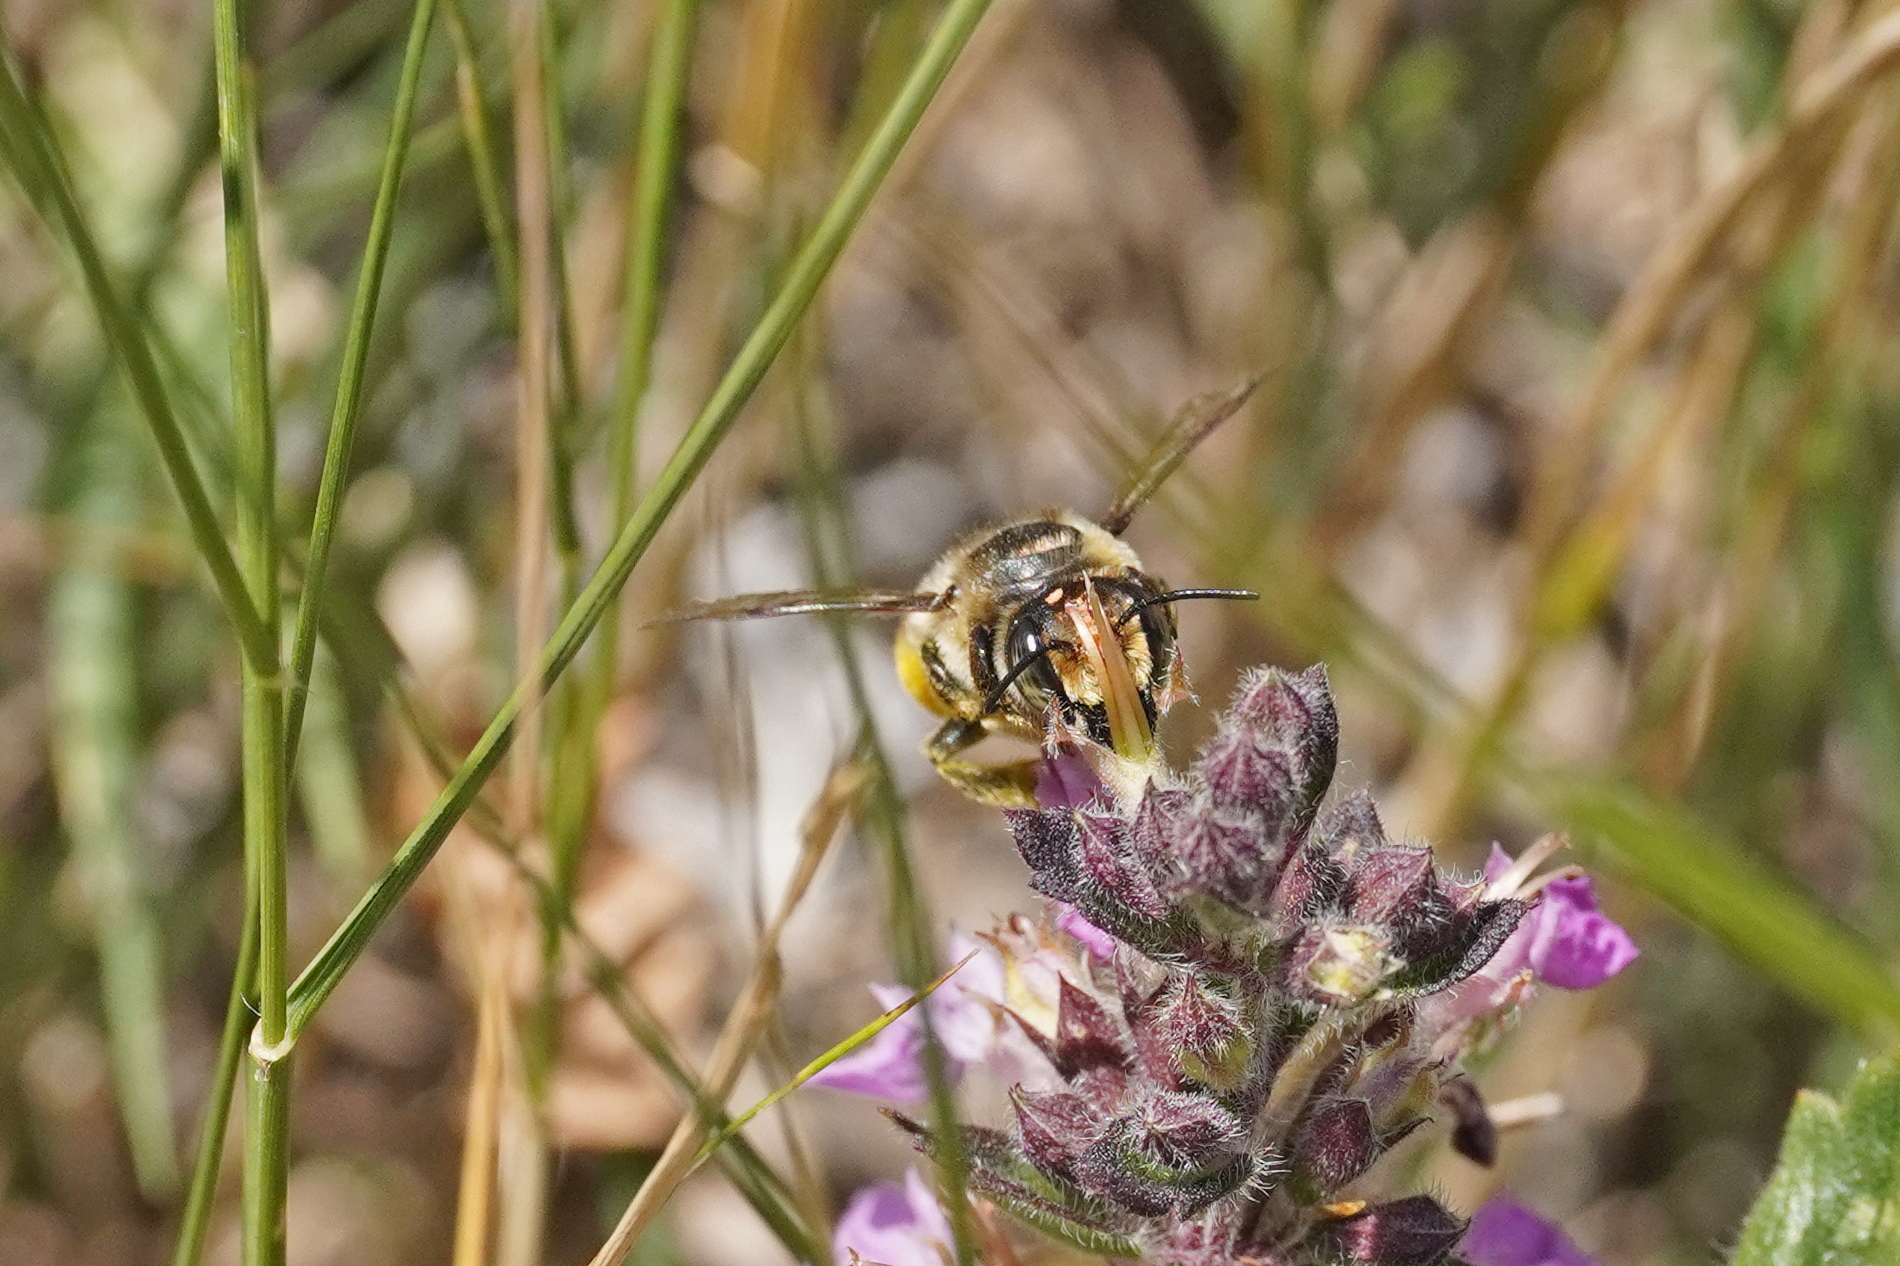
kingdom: Animalia
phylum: Arthropoda
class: Insecta
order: Hymenoptera
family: Megachilidae
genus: Megachile
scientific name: Megachile maritima
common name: Coastal leaf-cutter bee
